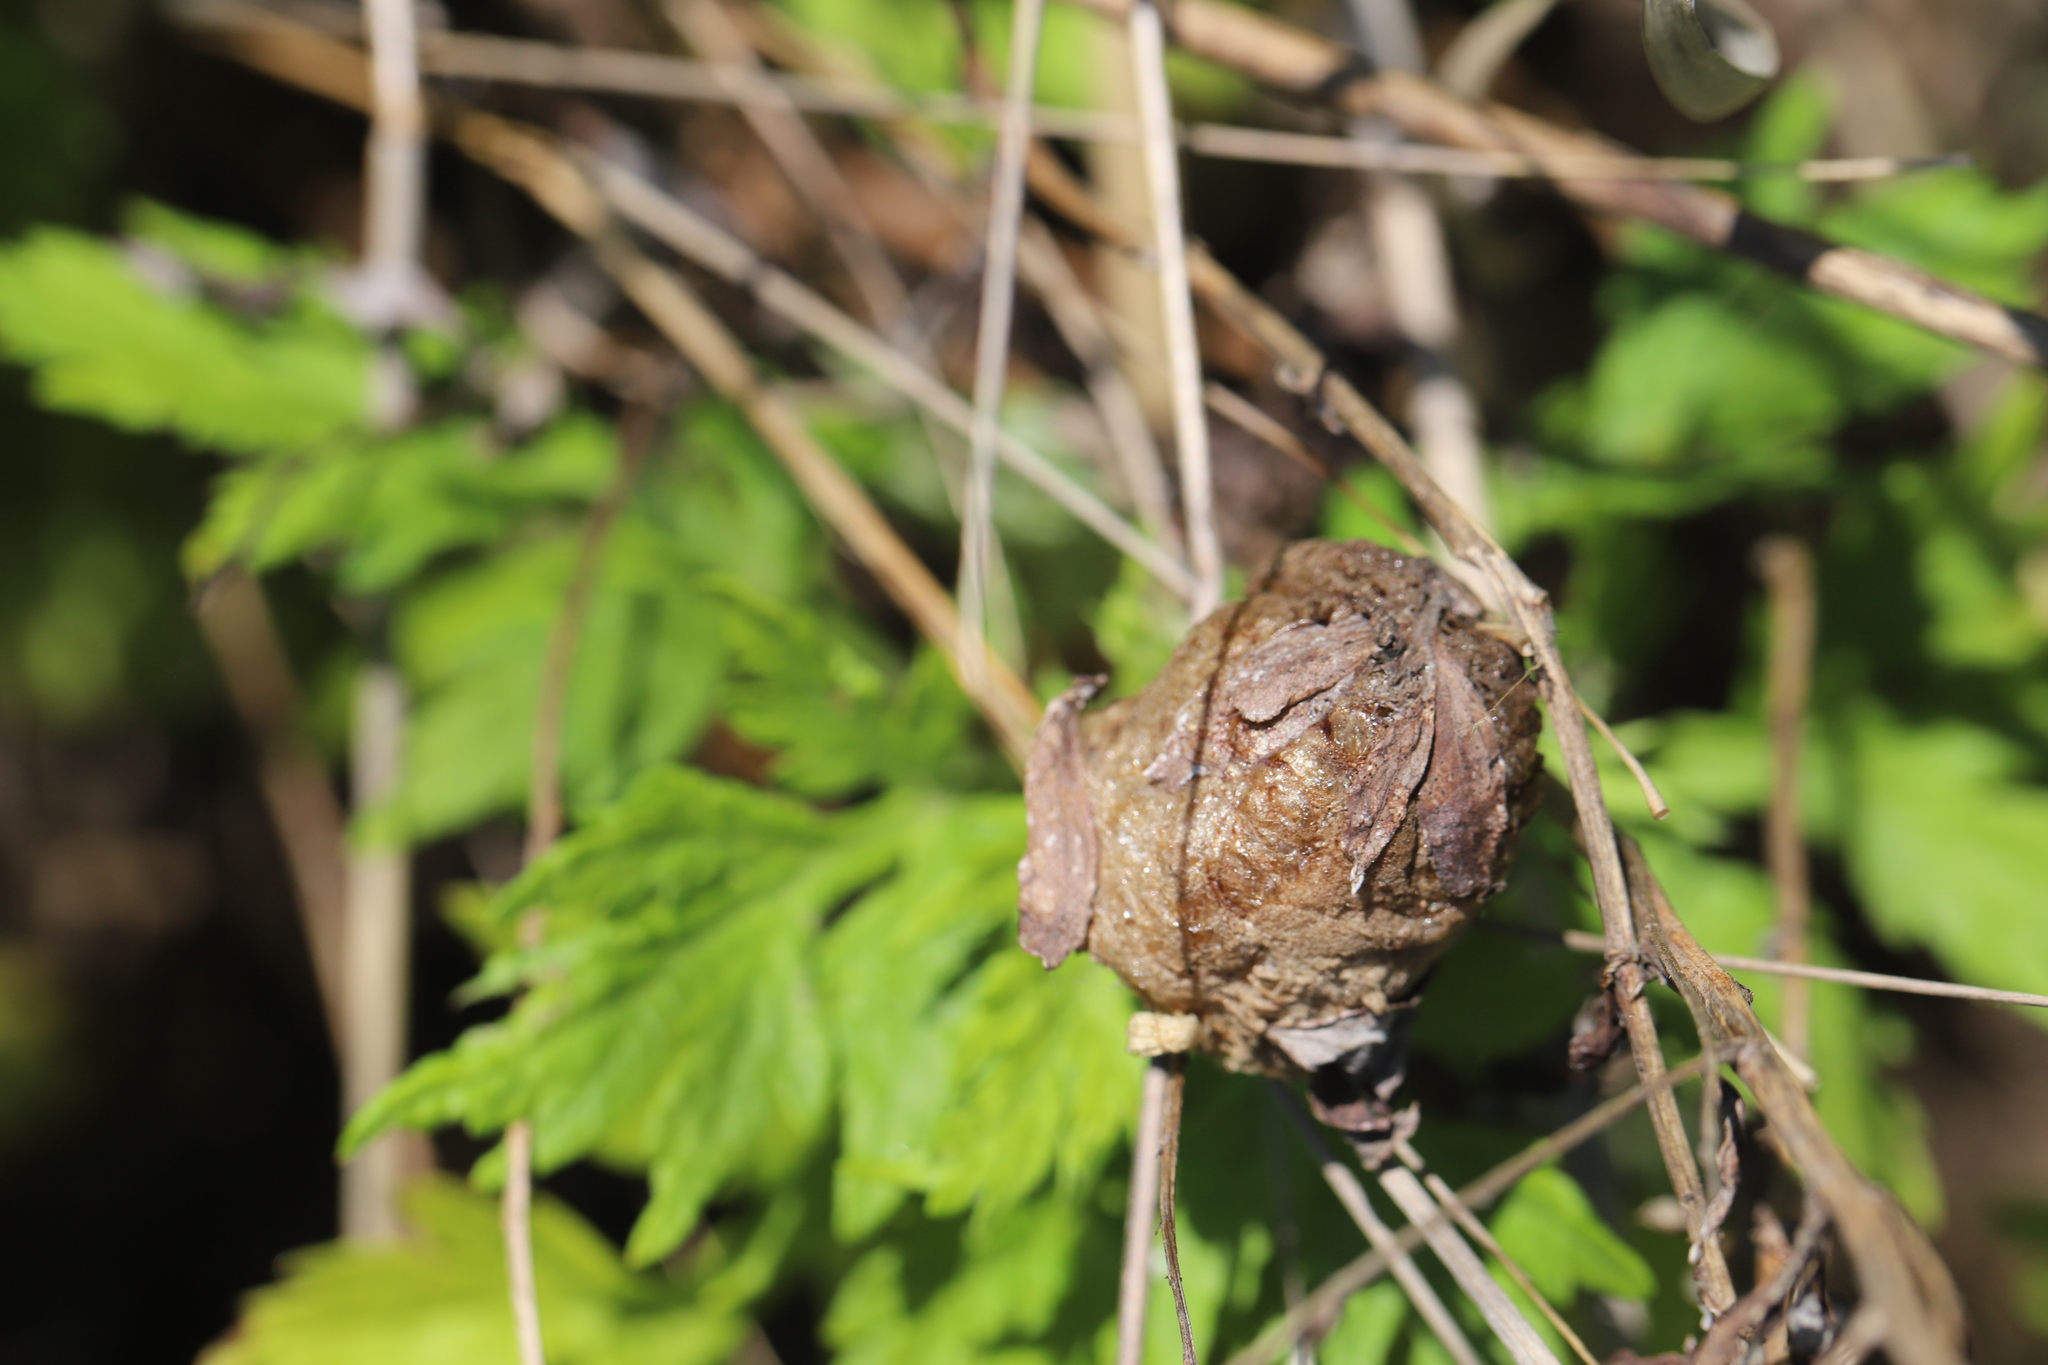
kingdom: Animalia
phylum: Arthropoda
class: Insecta
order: Mantodea
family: Mantidae
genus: Tenodera
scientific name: Tenodera sinensis
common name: Chinese mantis
